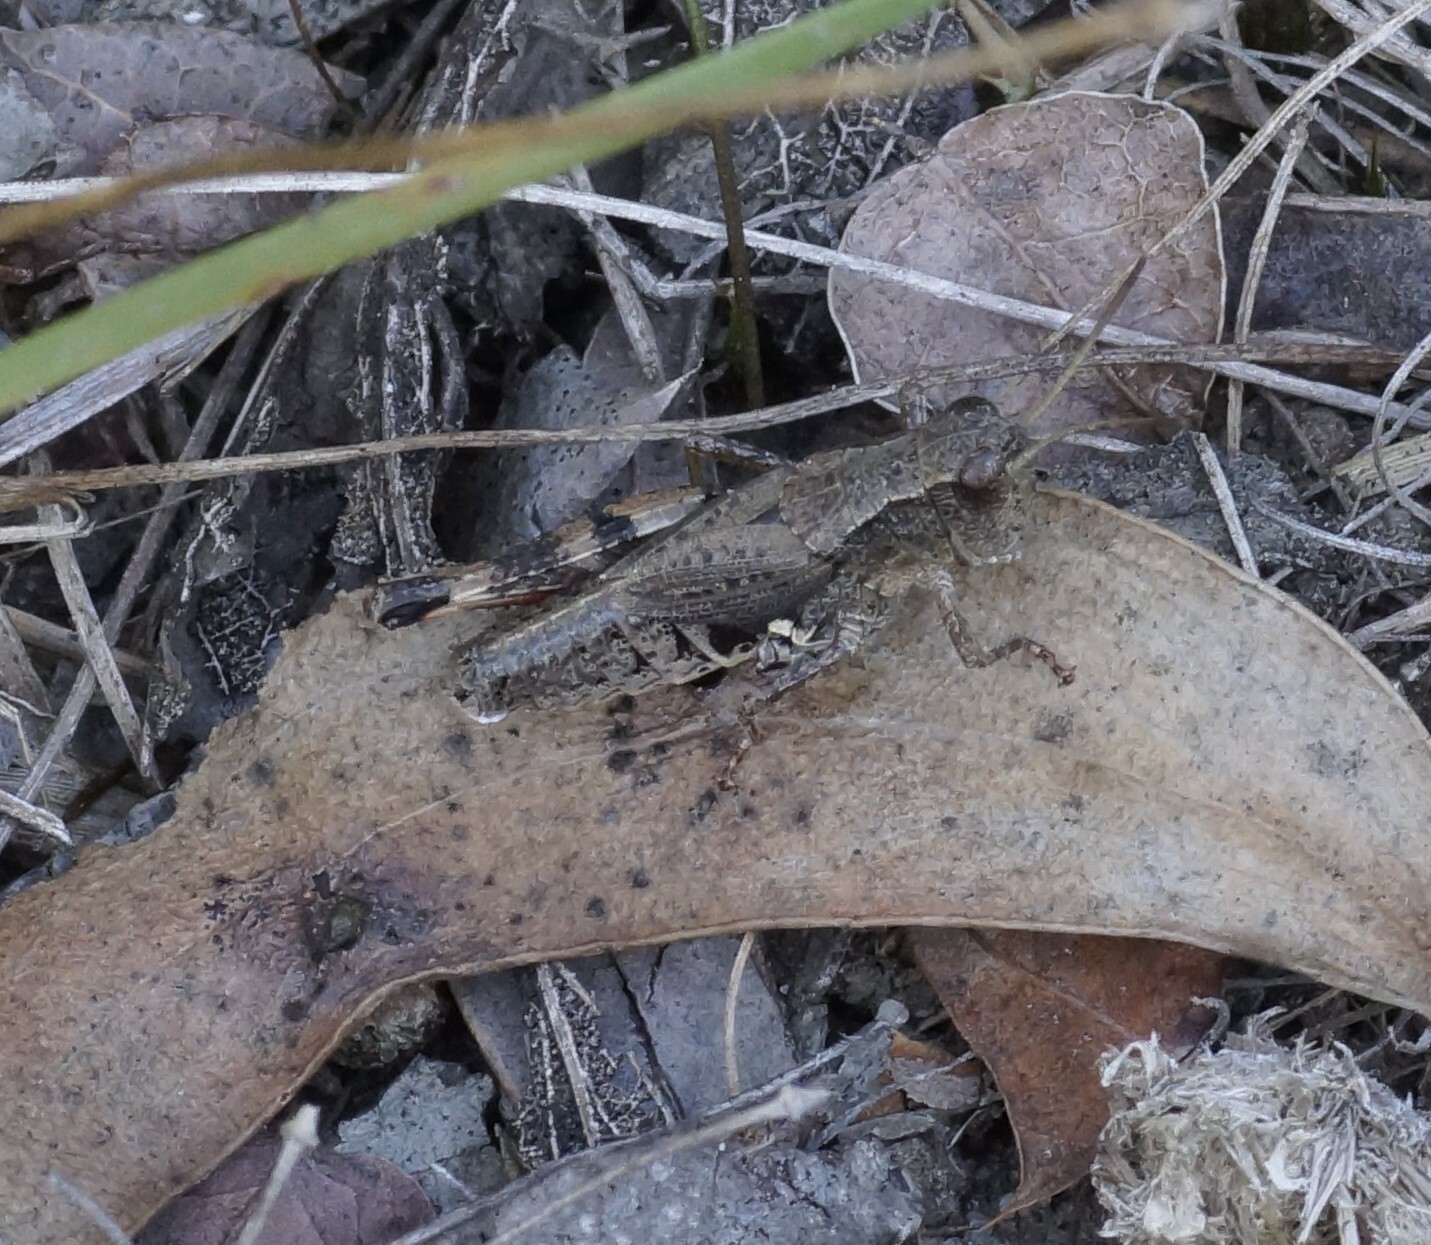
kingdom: Animalia
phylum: Arthropoda
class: Insecta
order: Orthoptera
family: Acrididae
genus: Phaulacridium
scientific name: Phaulacridium vittatum
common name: Wingless grasshopper
